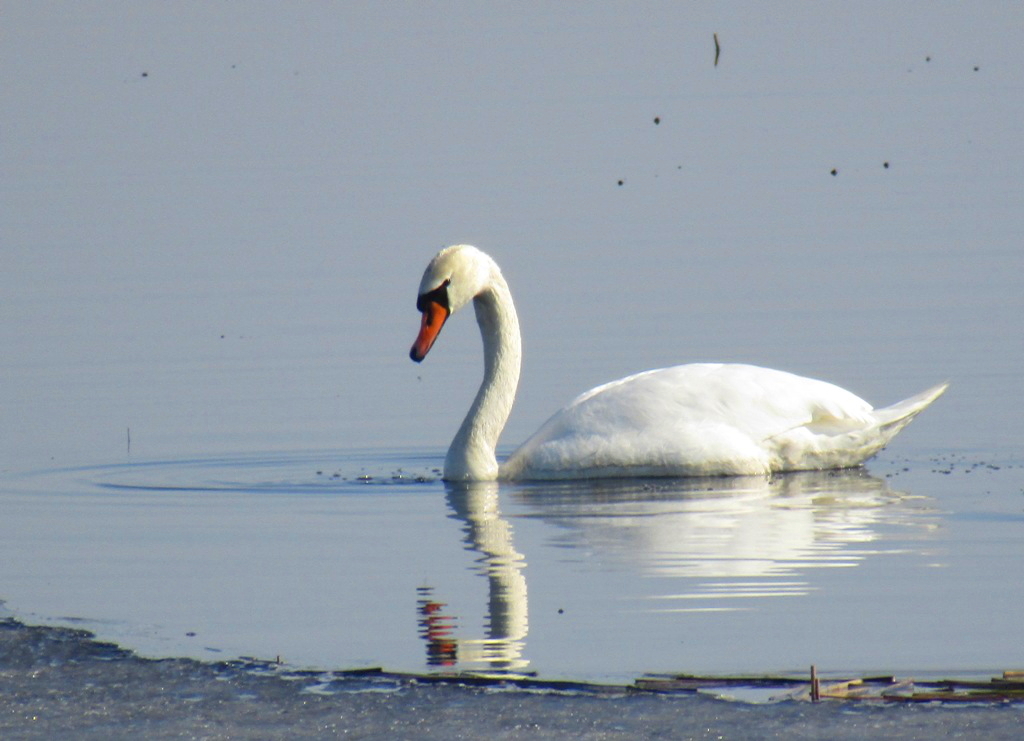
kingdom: Animalia
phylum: Chordata
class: Aves
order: Anseriformes
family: Anatidae
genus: Cygnus
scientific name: Cygnus olor
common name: Mute swan
